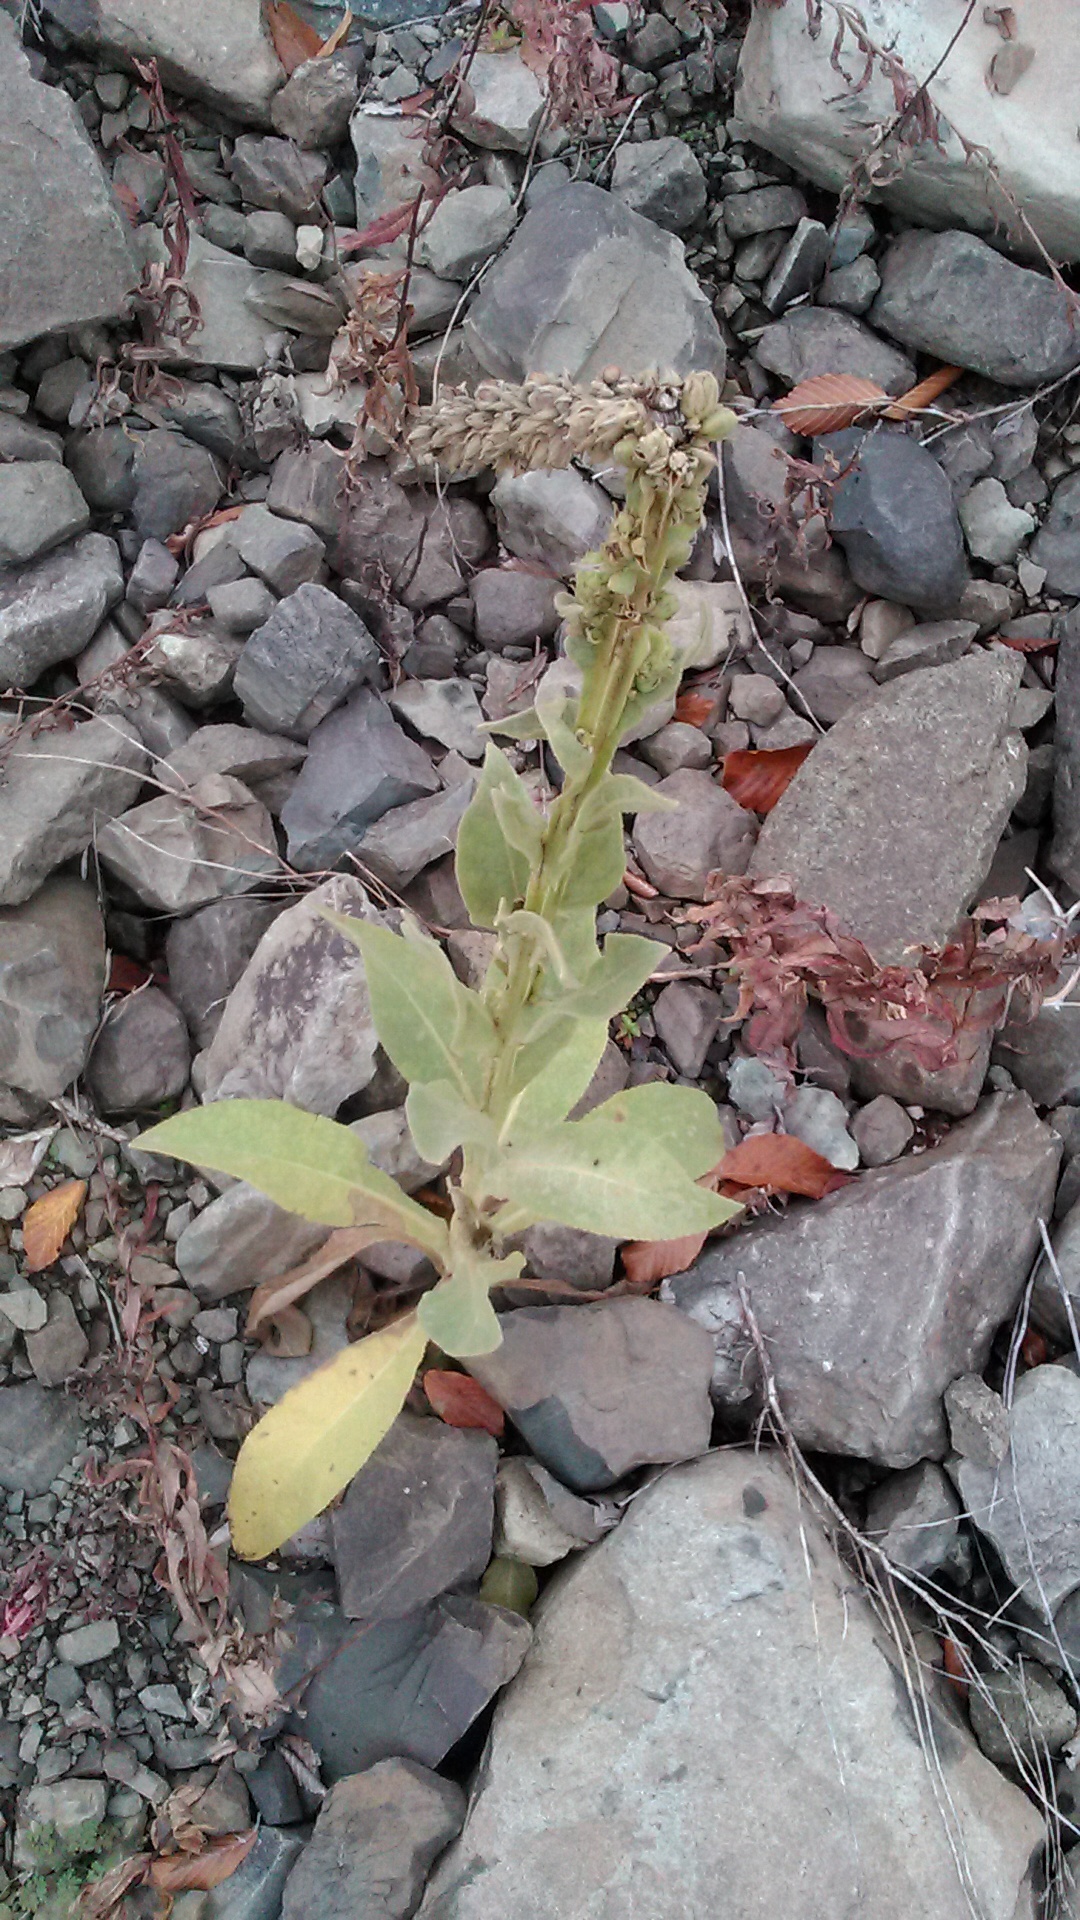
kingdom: Plantae
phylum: Tracheophyta
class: Magnoliopsida
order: Lamiales
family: Scrophulariaceae
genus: Verbascum
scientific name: Verbascum thapsus
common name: Common mullein
